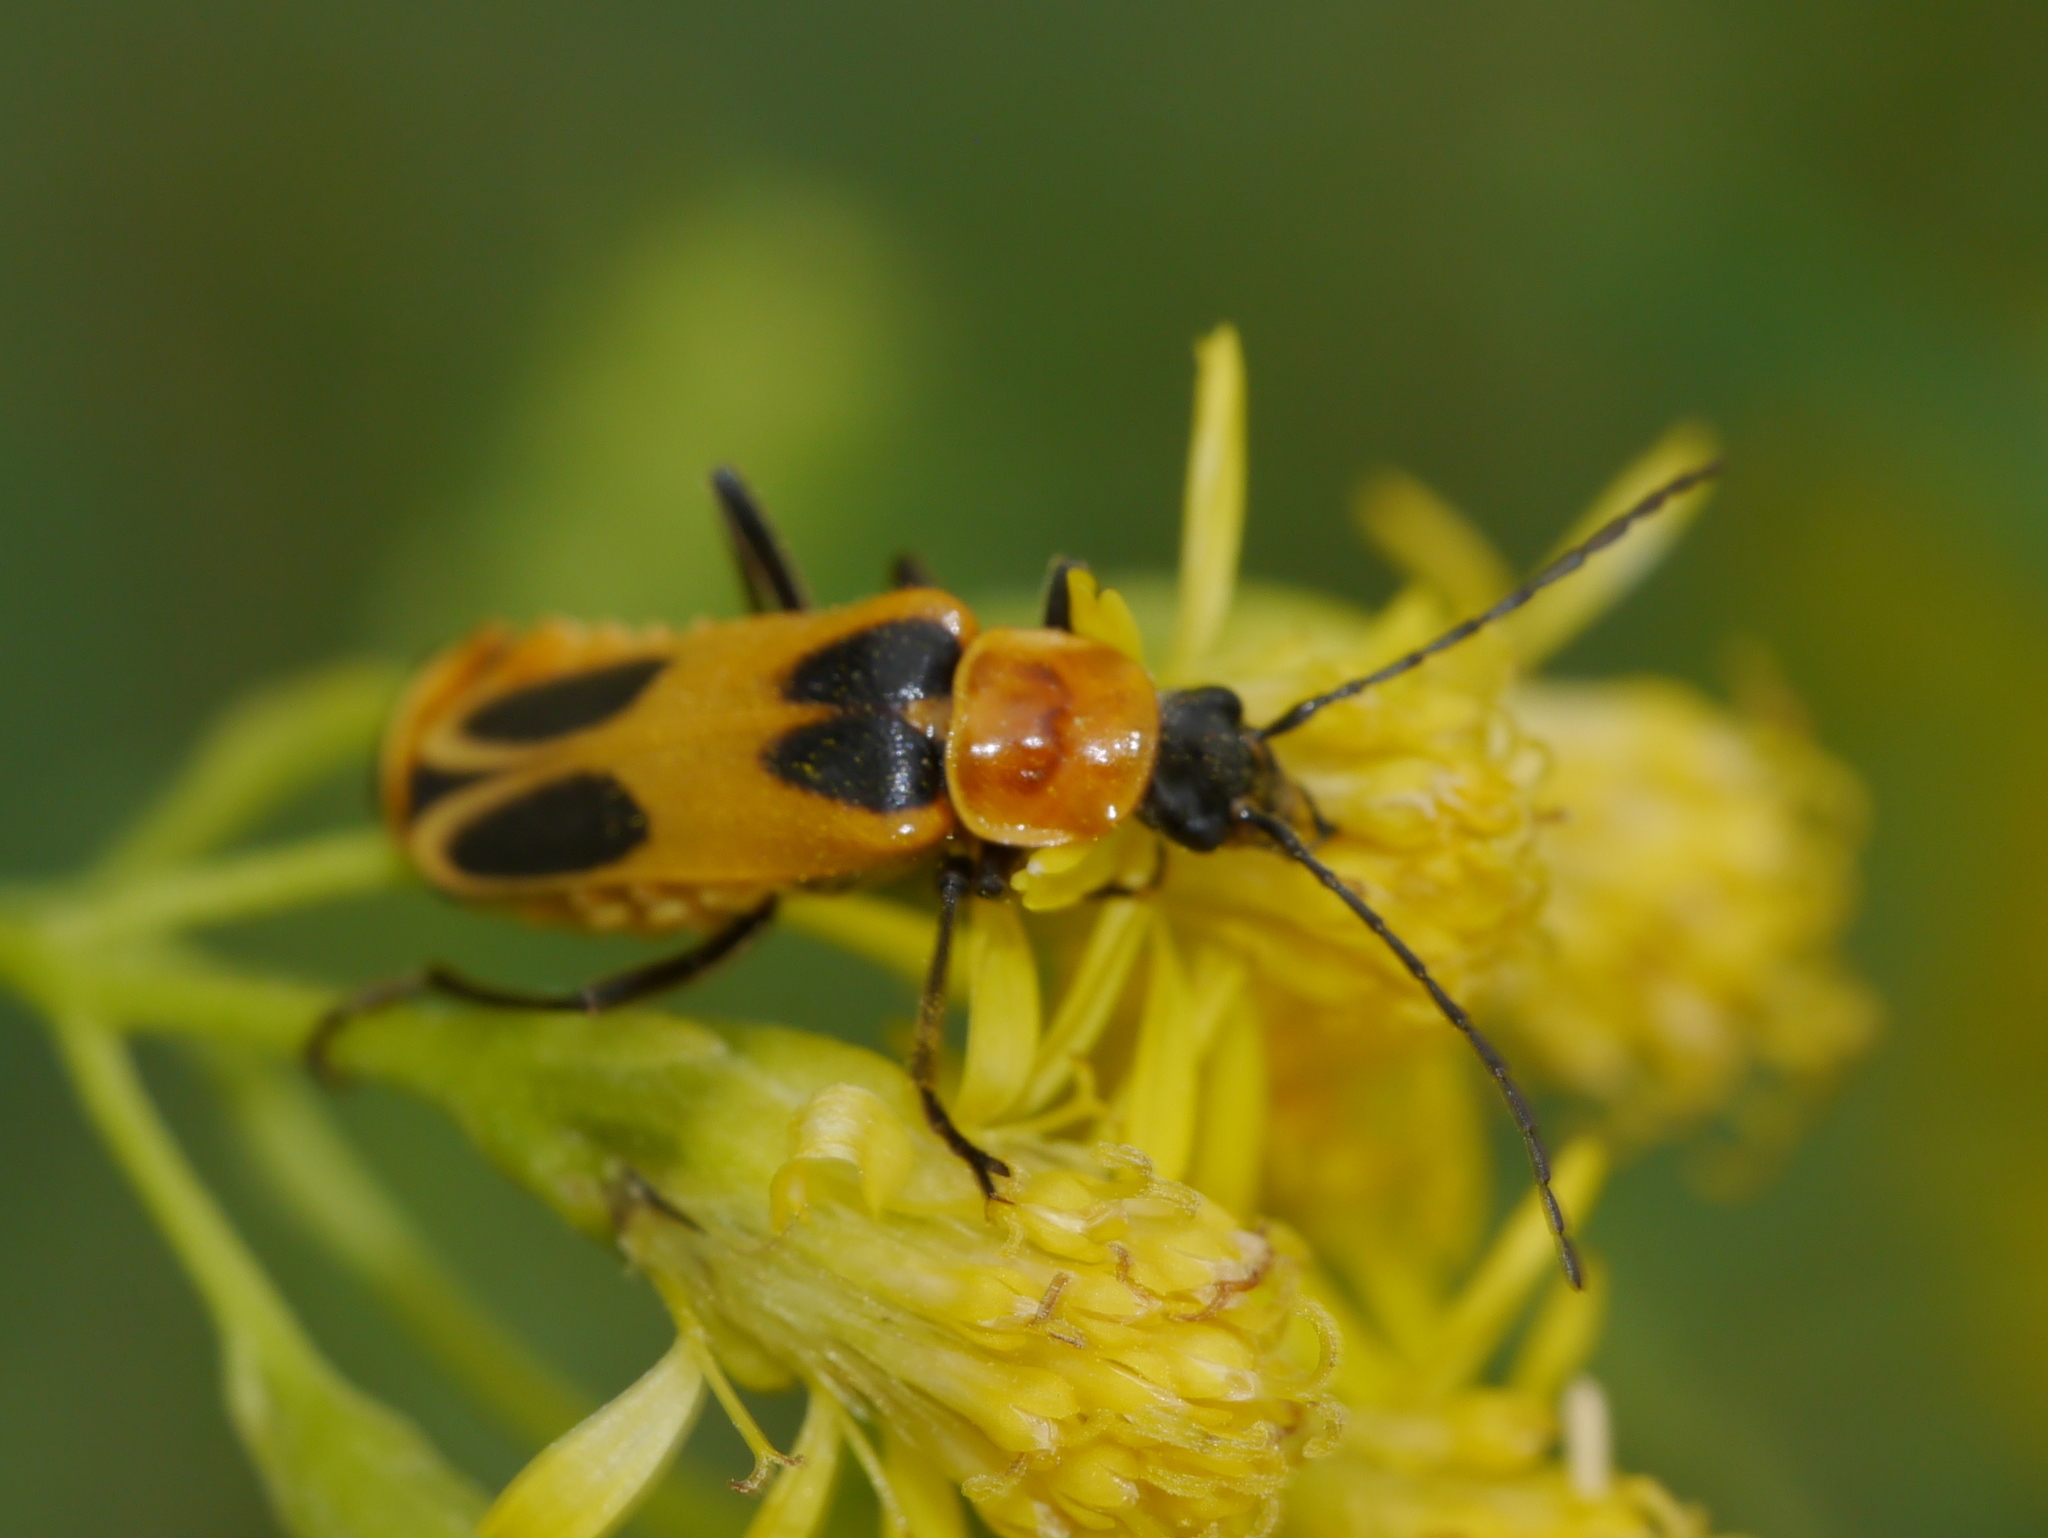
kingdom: Animalia
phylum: Arthropoda
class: Insecta
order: Coleoptera
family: Cantharidae
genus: Chauliognathus
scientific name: Chauliognathus omissus
